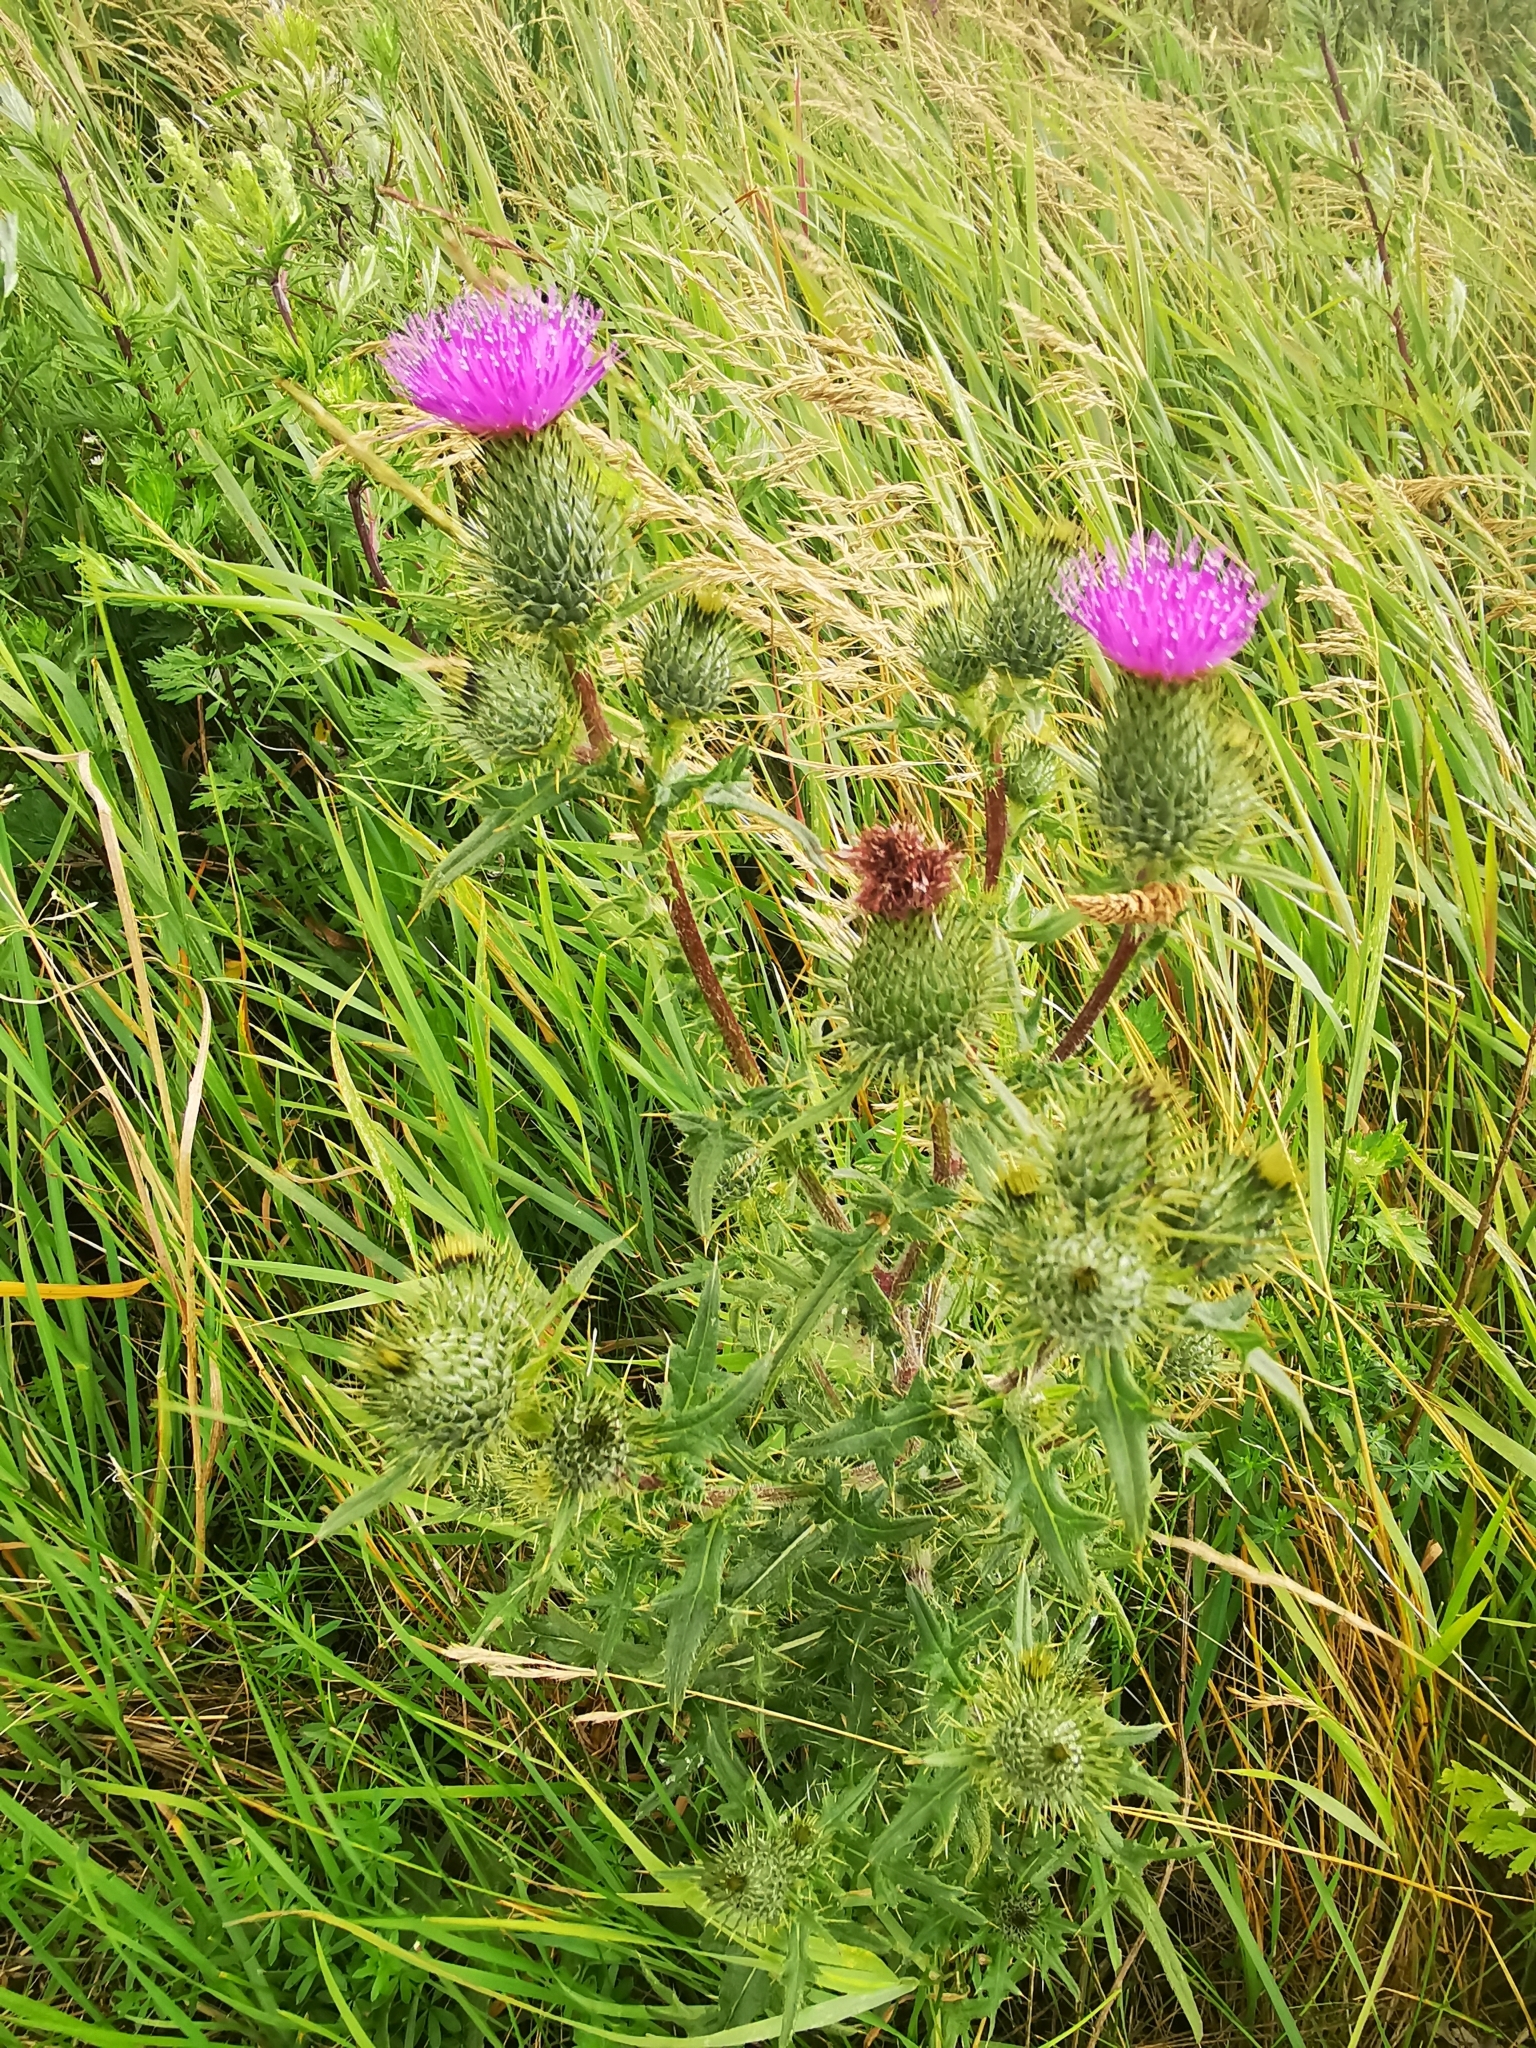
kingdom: Plantae
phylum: Tracheophyta
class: Magnoliopsida
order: Asterales
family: Asteraceae
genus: Cirsium
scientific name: Cirsium vulgare
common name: Bull thistle
